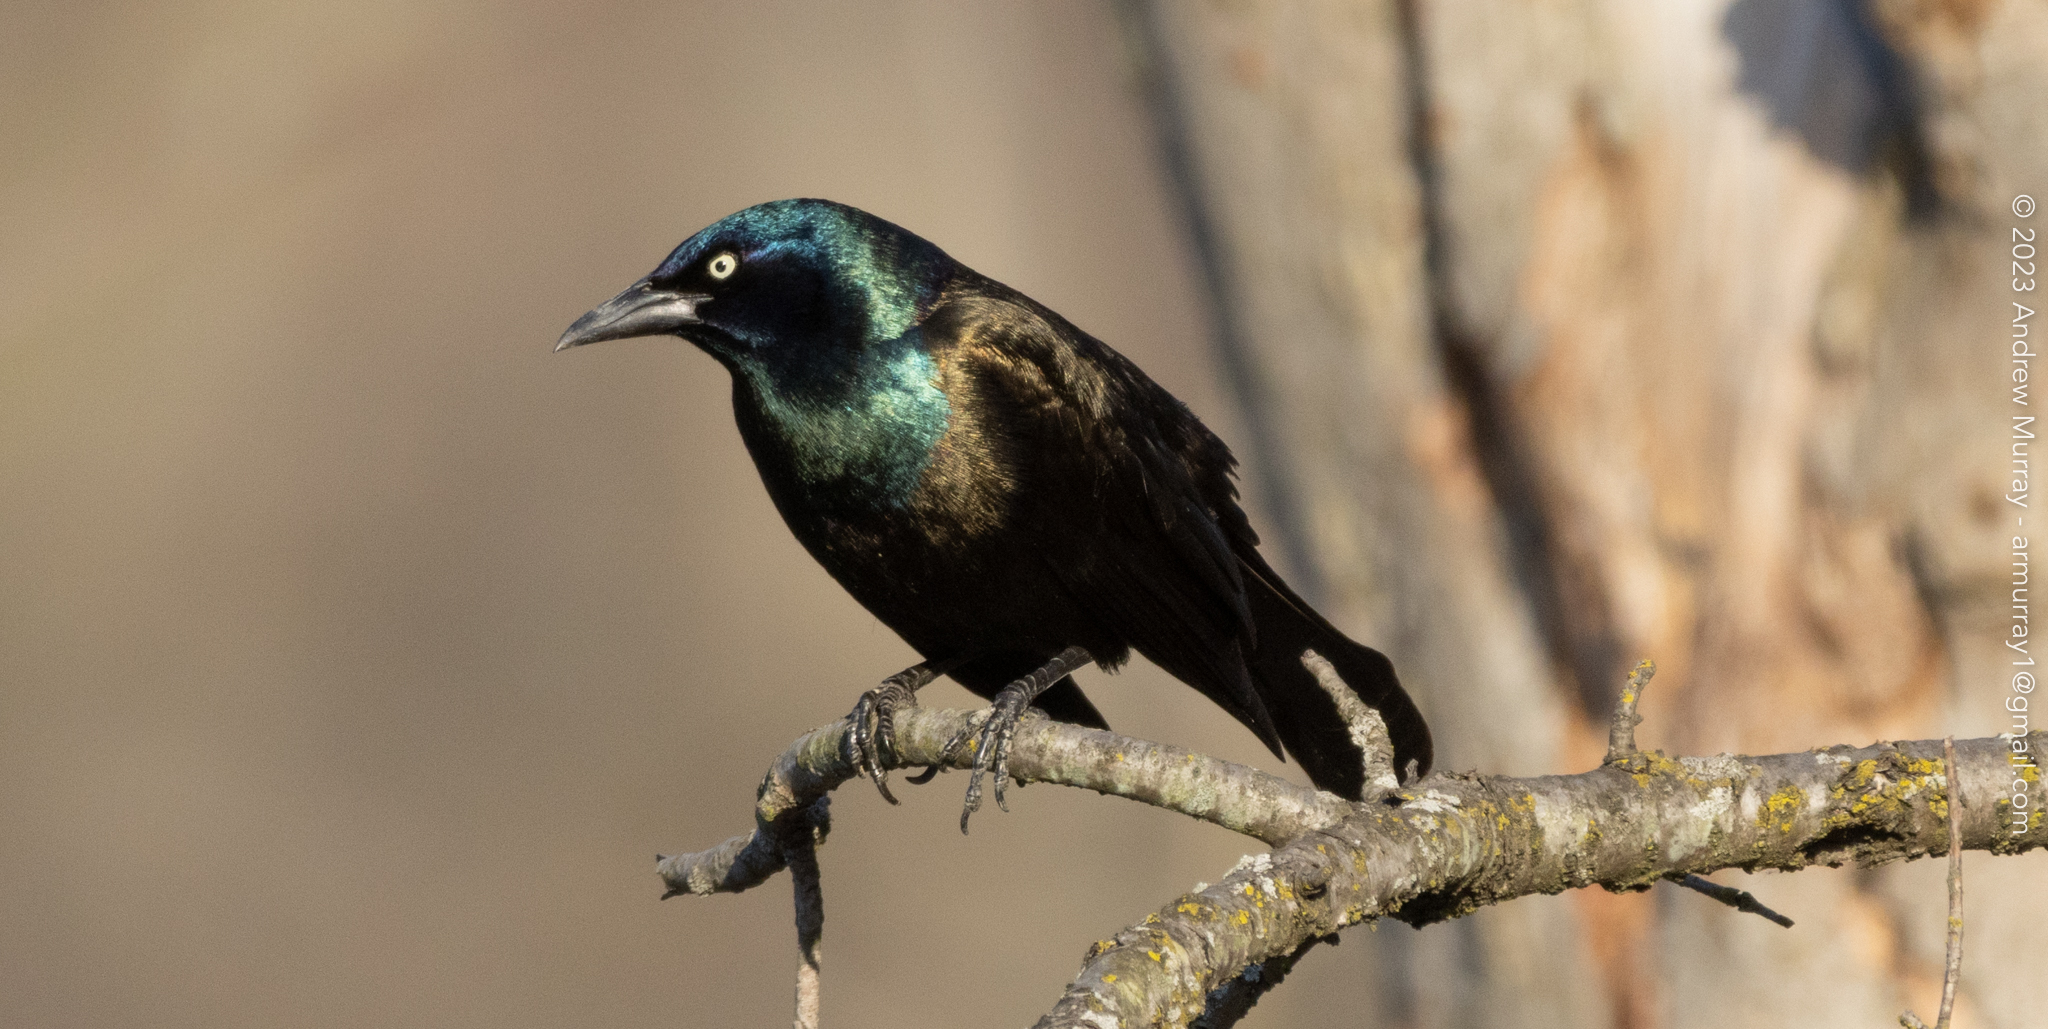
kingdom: Animalia
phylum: Chordata
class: Aves
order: Passeriformes
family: Icteridae
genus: Quiscalus
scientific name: Quiscalus quiscula
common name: Common grackle
